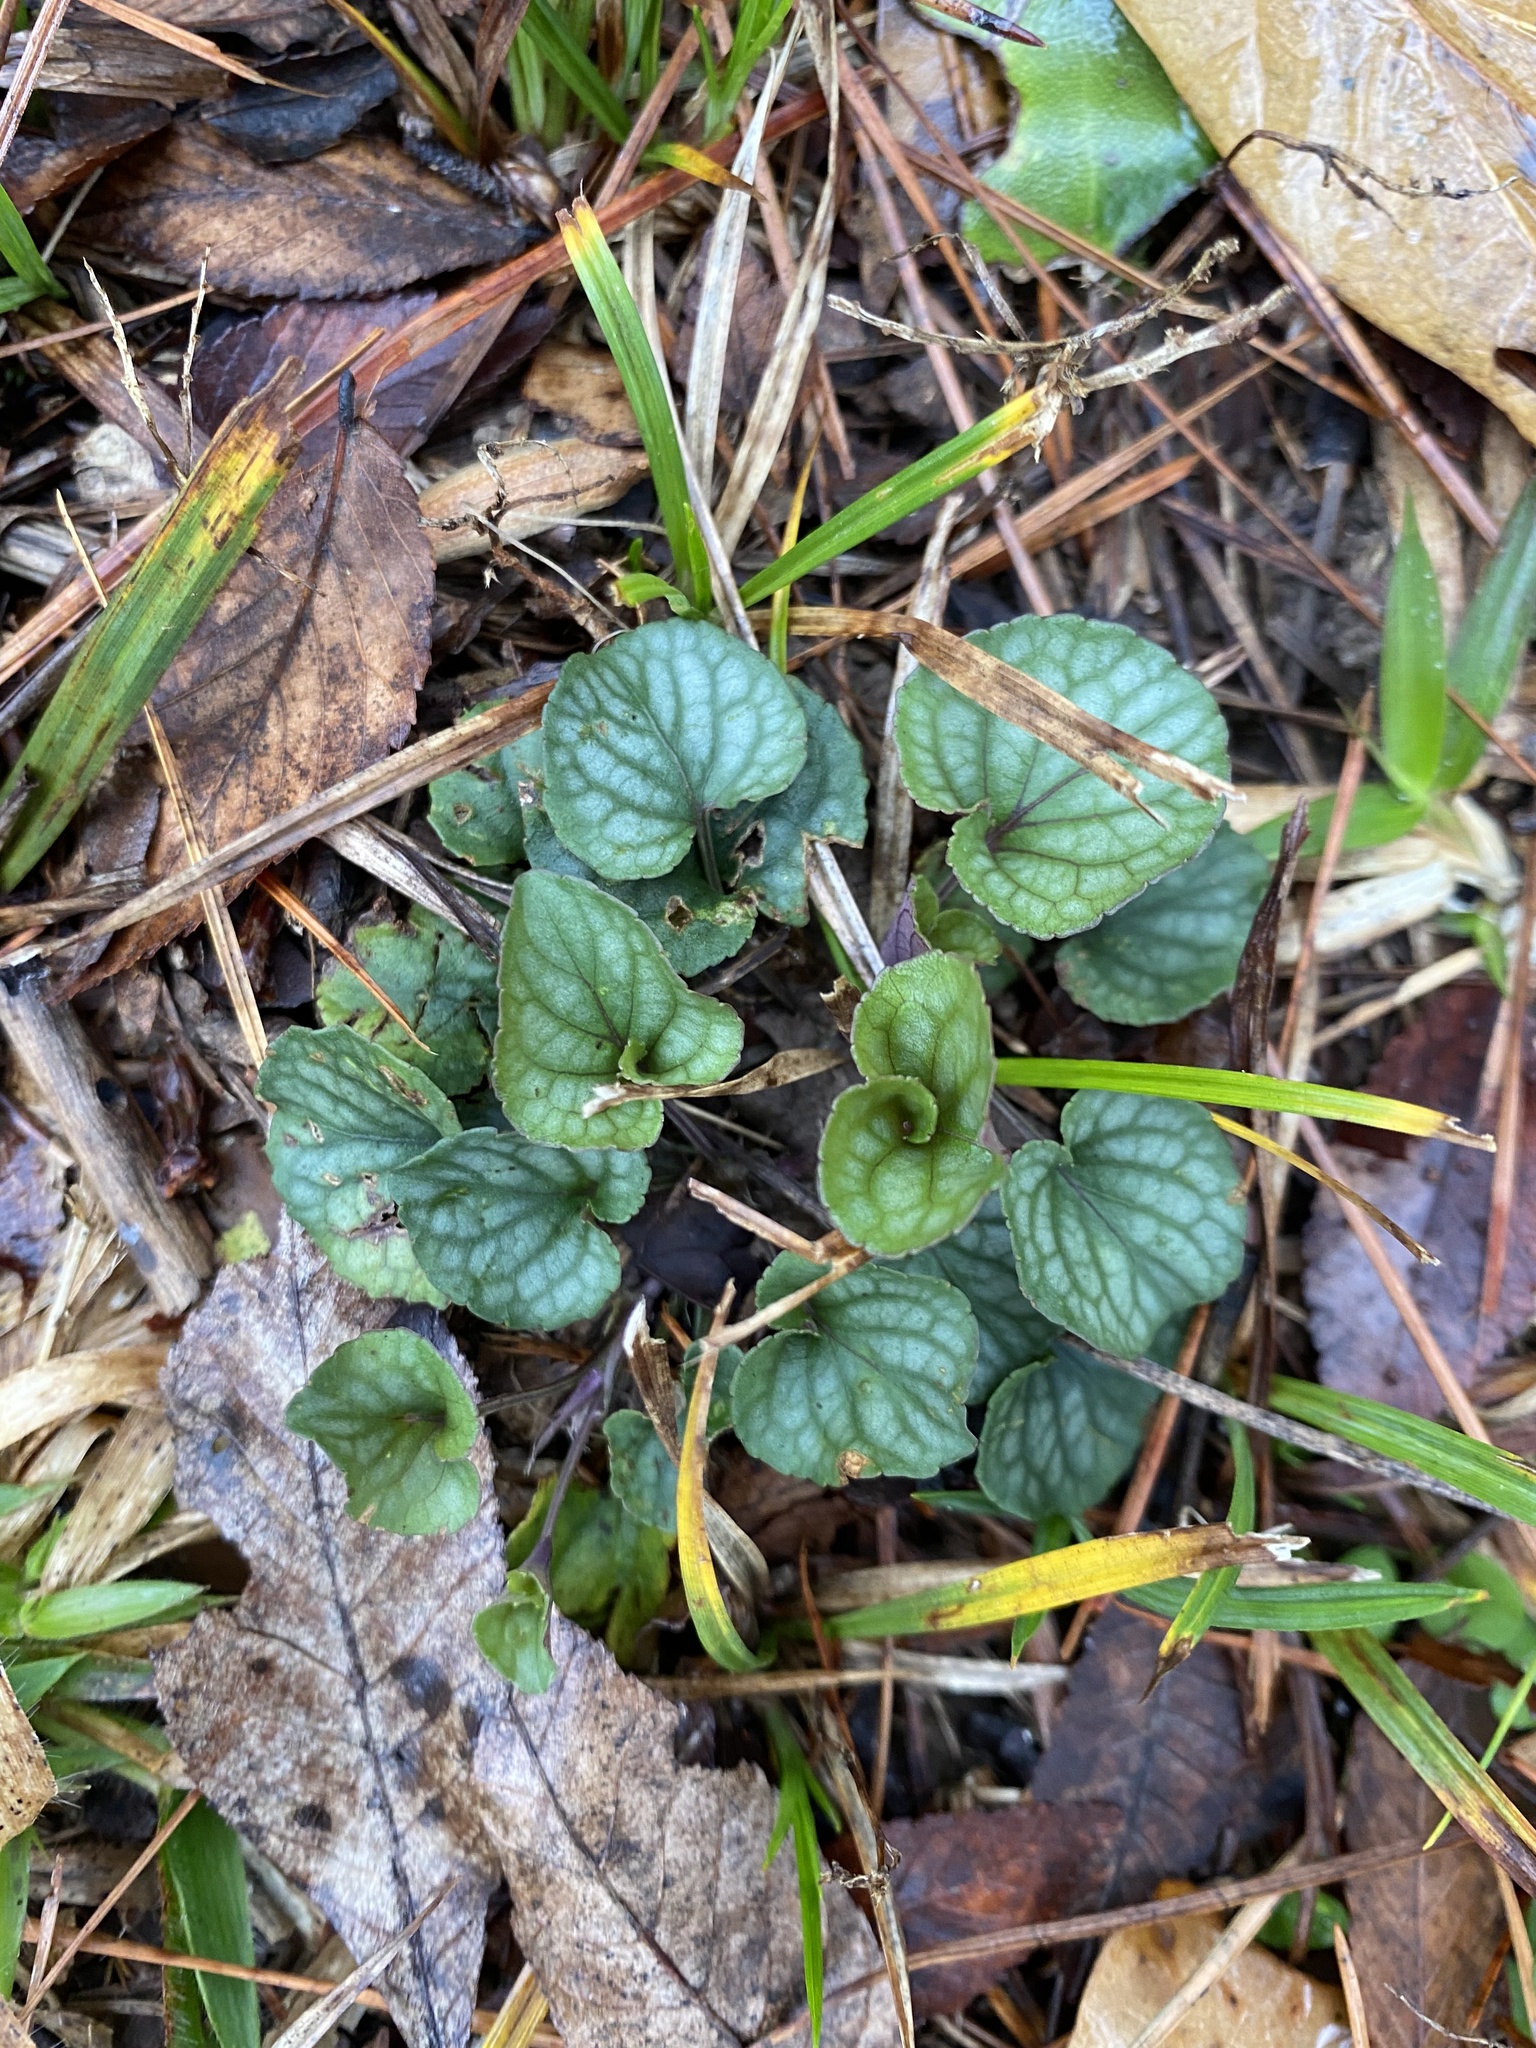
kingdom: Plantae
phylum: Tracheophyta
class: Magnoliopsida
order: Malpighiales
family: Violaceae
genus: Viola
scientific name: Viola walteri
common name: Prostrate southern violet
